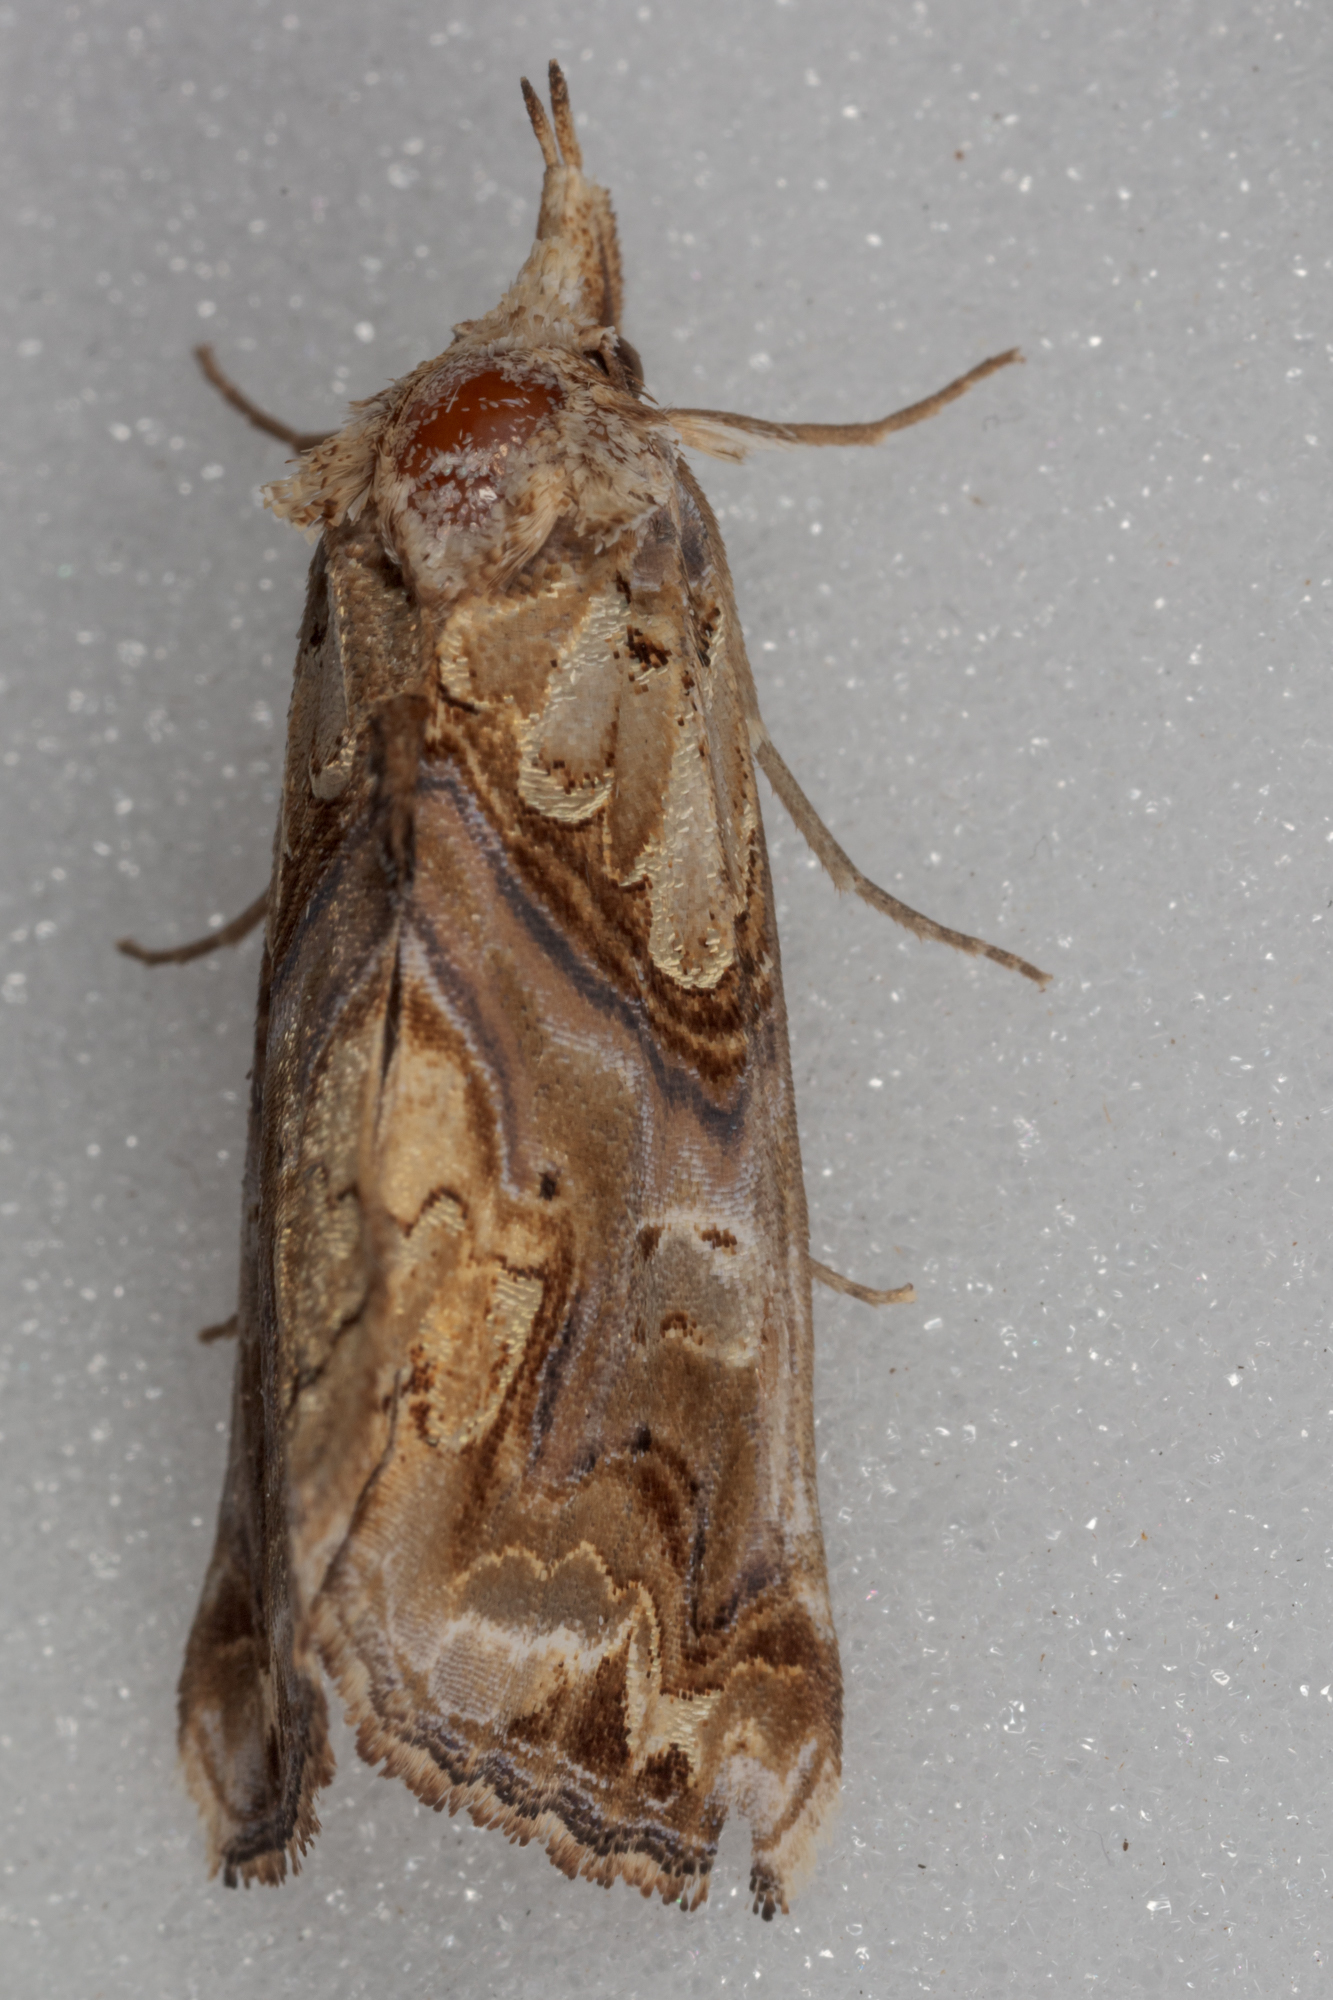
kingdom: Animalia
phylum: Arthropoda
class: Insecta
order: Lepidoptera
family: Erebidae
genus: Plusiodonta
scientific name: Plusiodonta compressipalpis
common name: Moonseed moth
